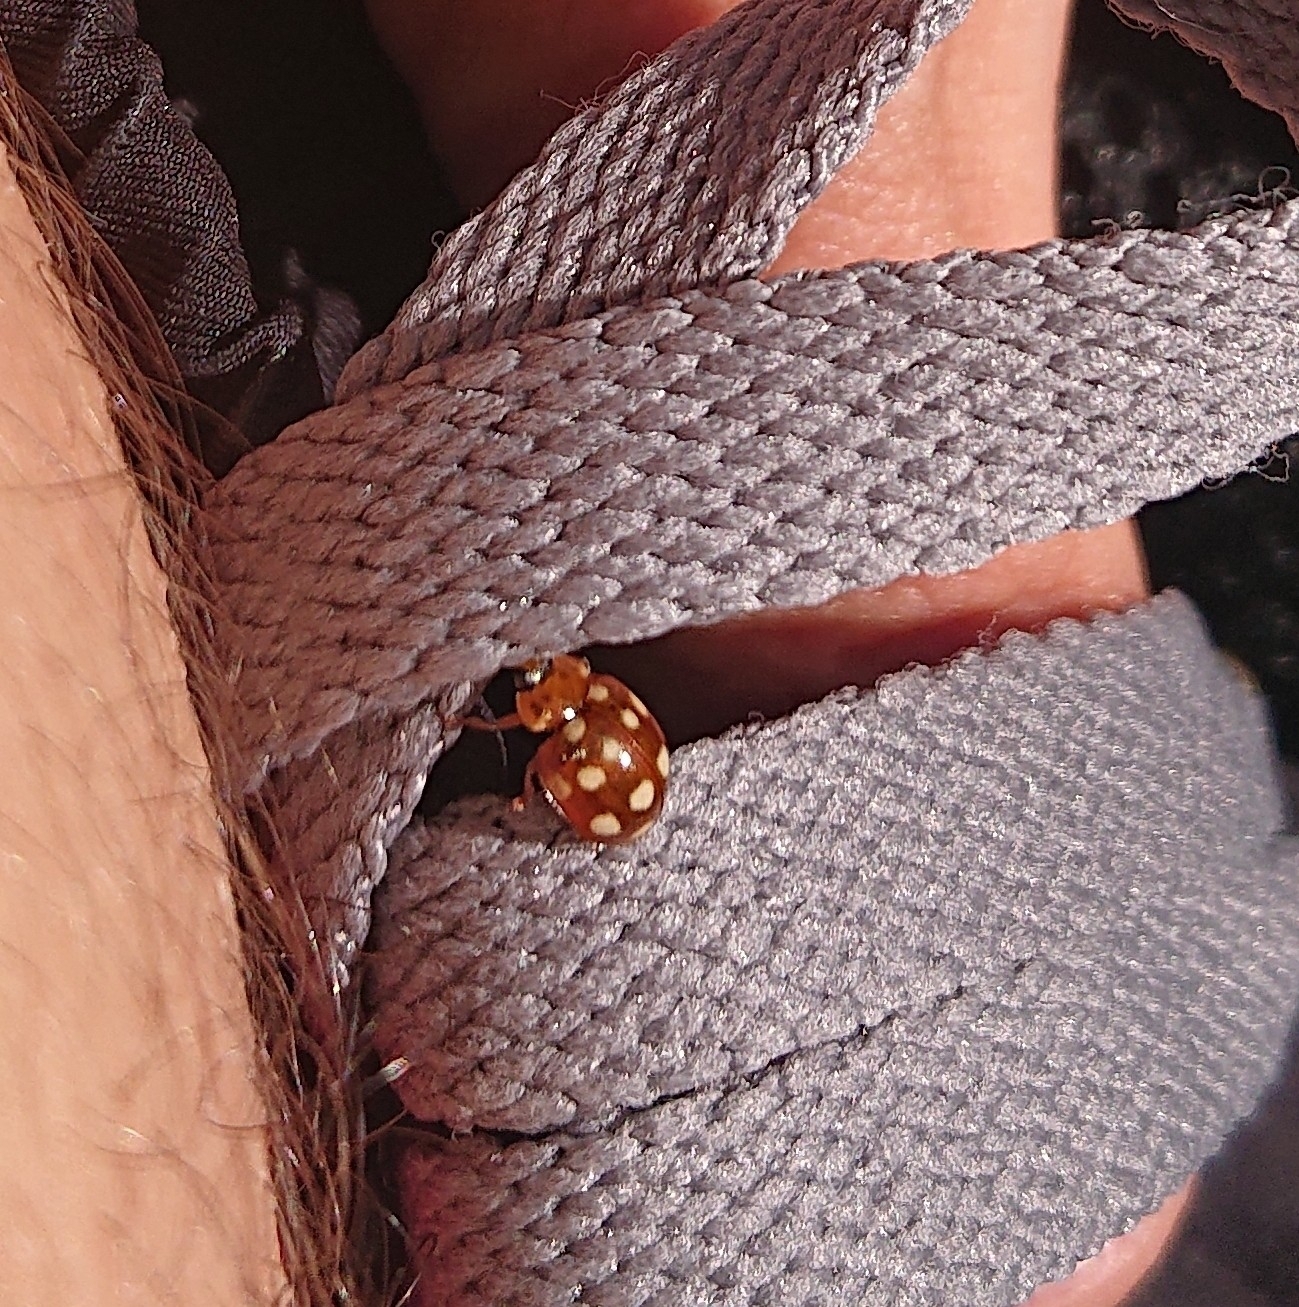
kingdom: Animalia
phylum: Arthropoda
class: Insecta
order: Coleoptera
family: Coccinellidae
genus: Calvia
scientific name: Calvia quatuordecimguttata
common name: Cream-spot ladybird
